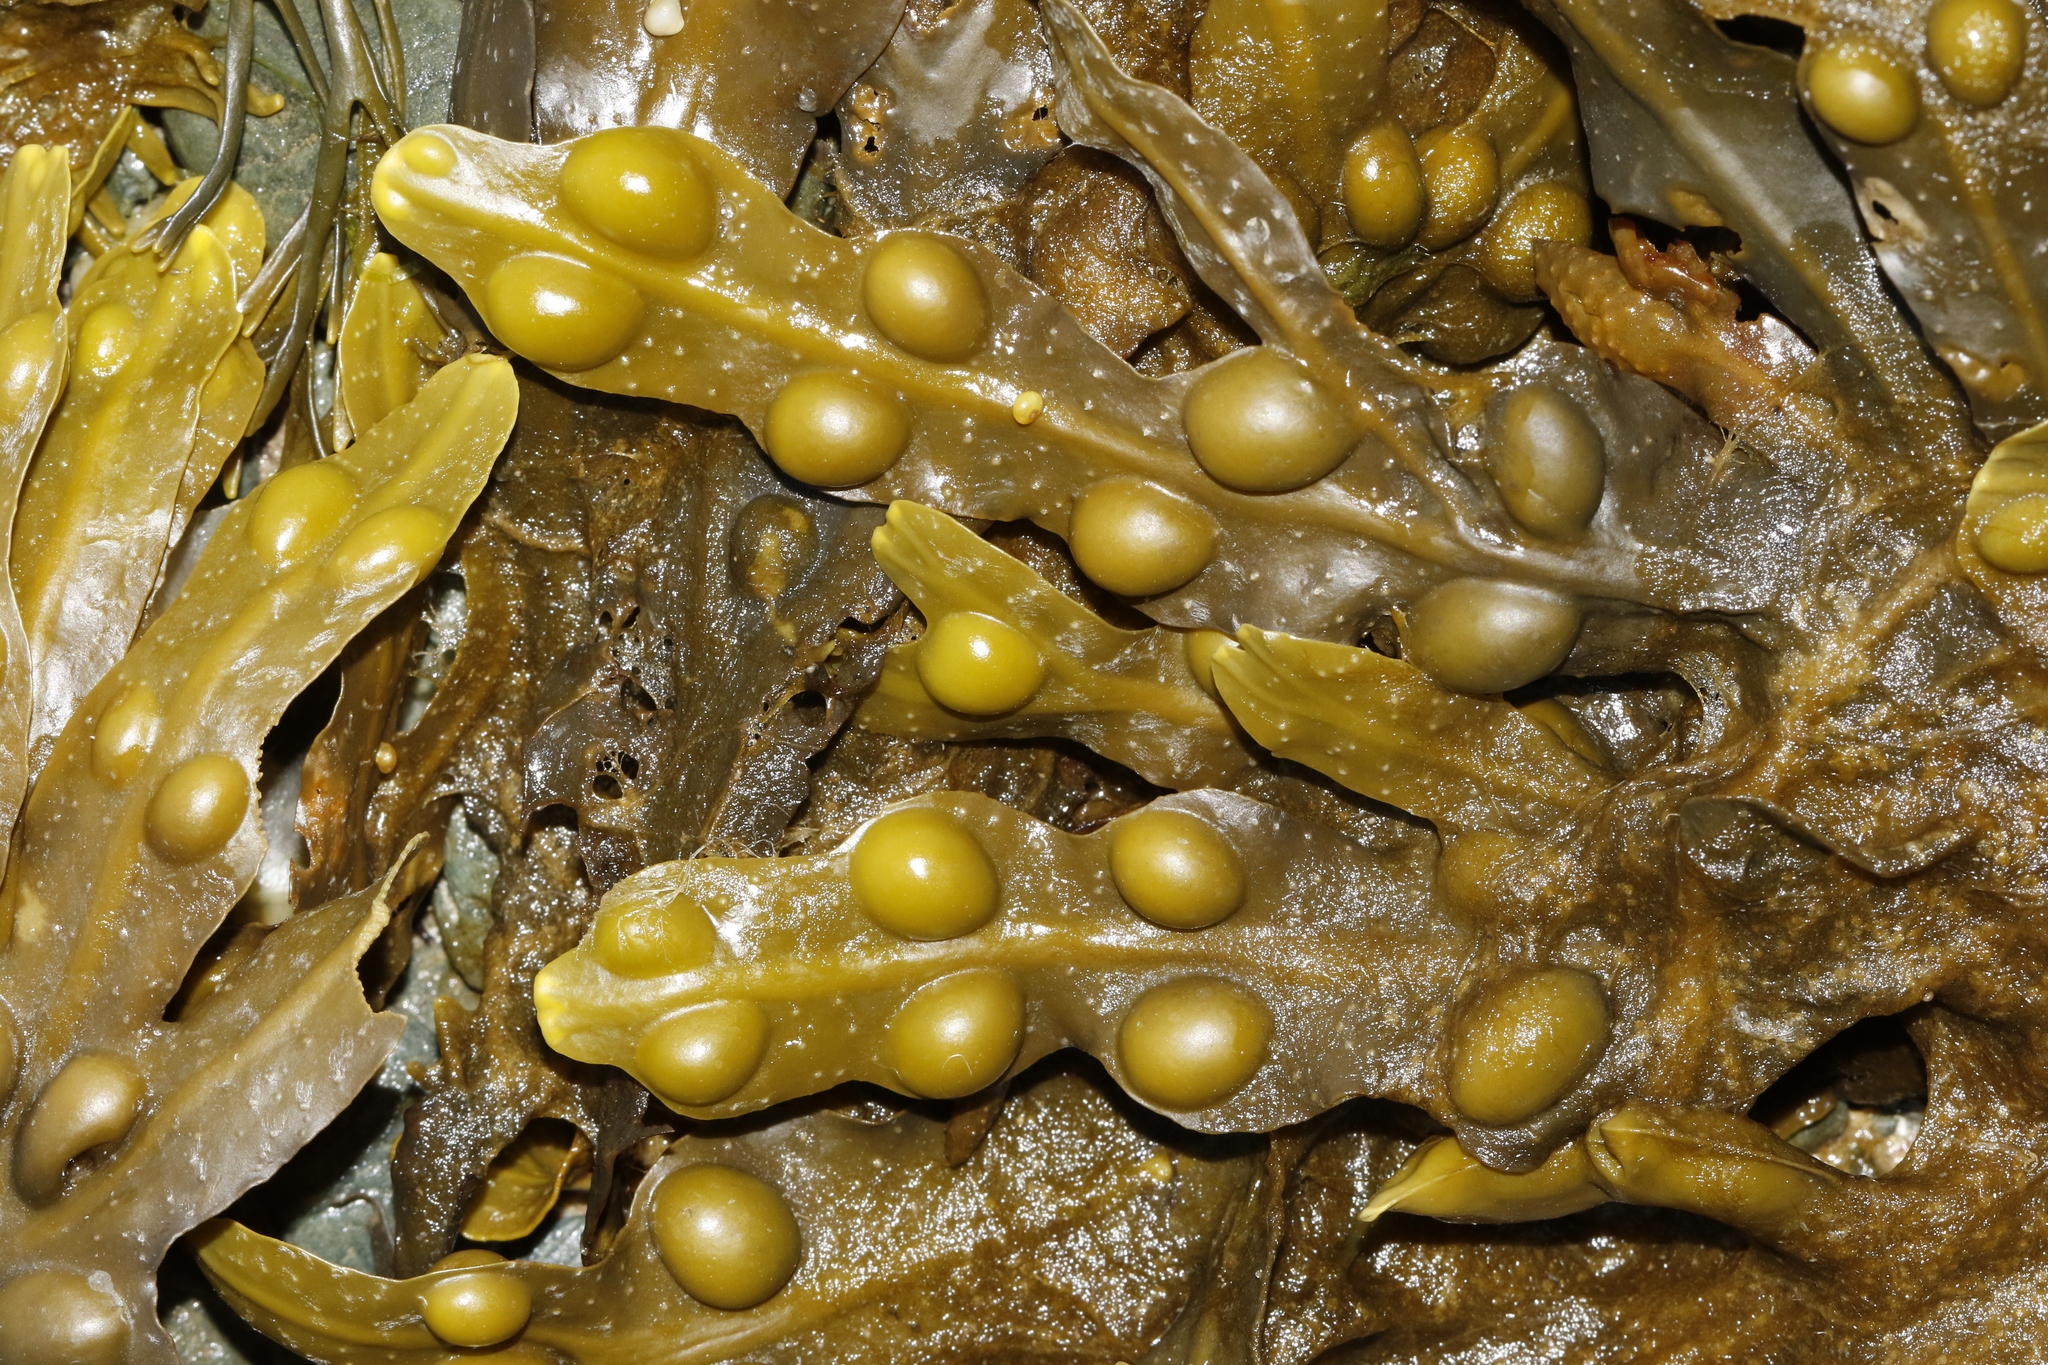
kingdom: Chromista
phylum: Ochrophyta
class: Phaeophyceae
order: Fucales
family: Fucaceae
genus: Fucus
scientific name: Fucus vesiculosus
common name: Bladder wrack
